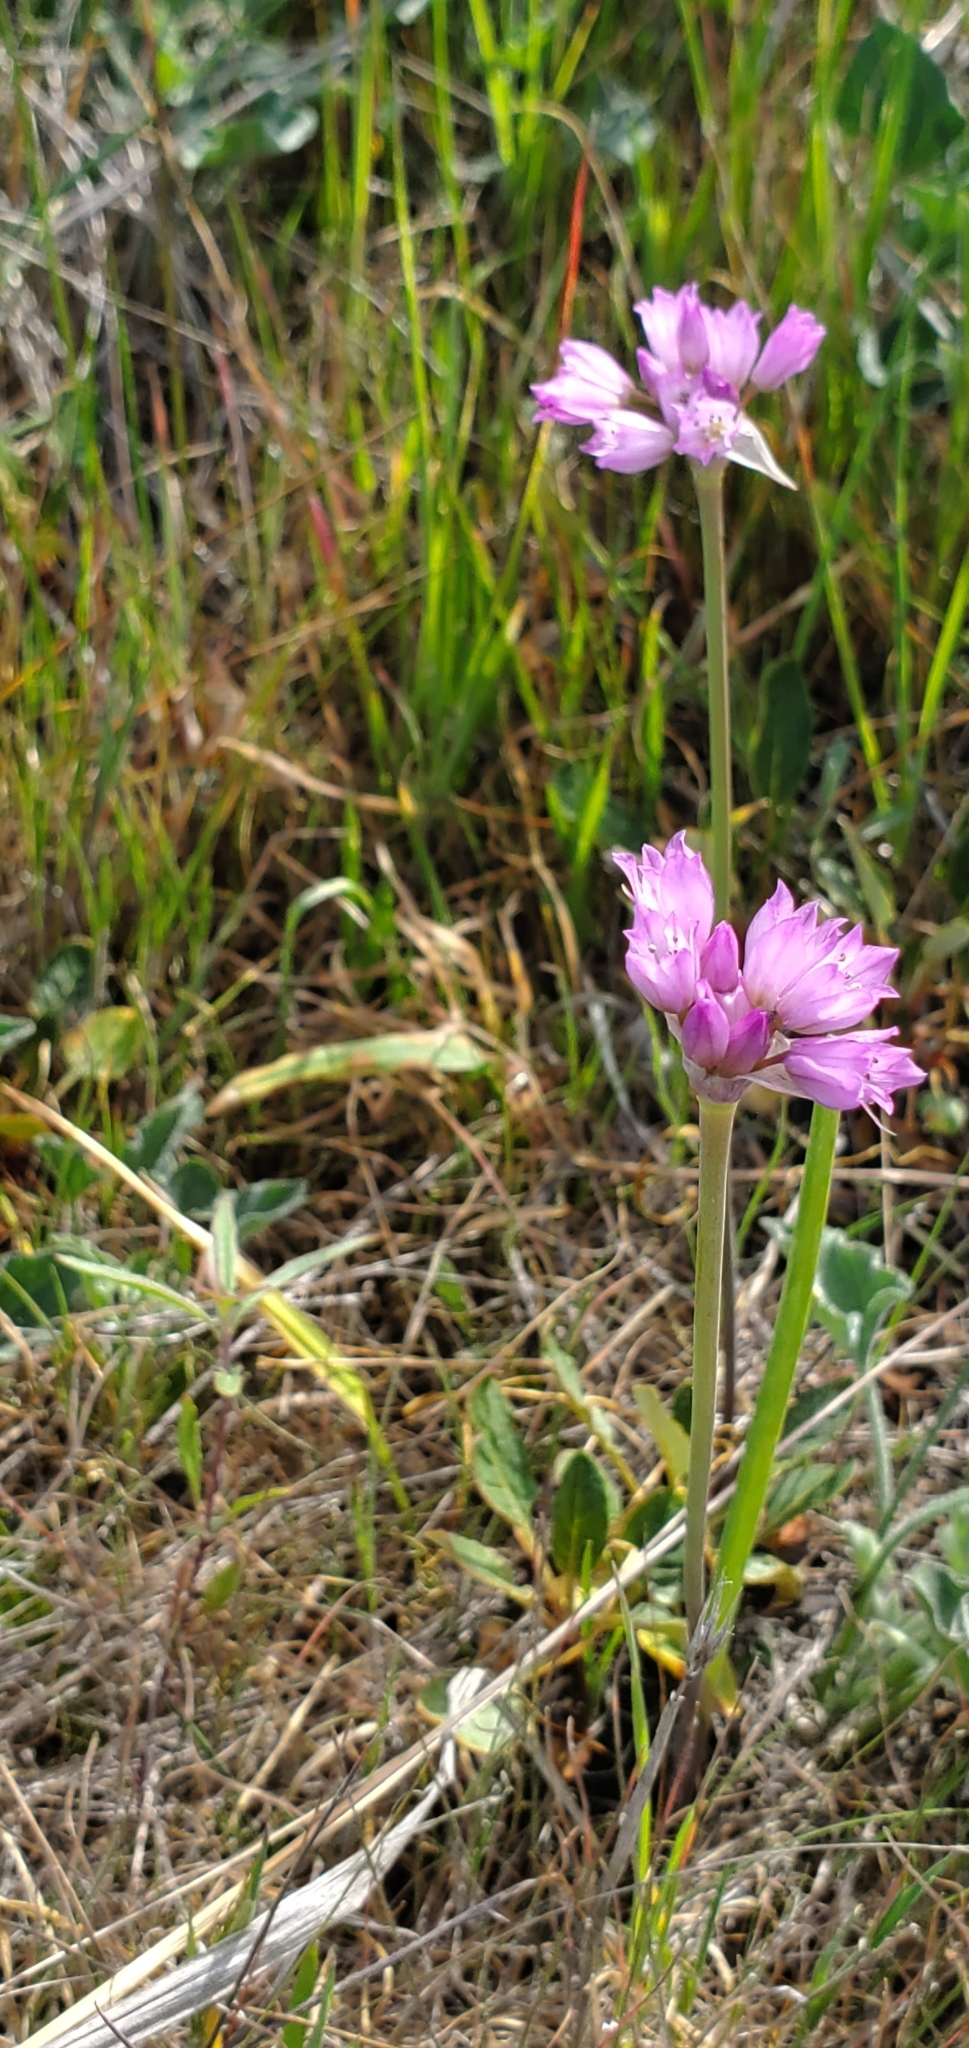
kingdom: Plantae
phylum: Tracheophyta
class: Liliopsida
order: Asparagales
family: Amaryllidaceae
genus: Allium
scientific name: Allium serra
